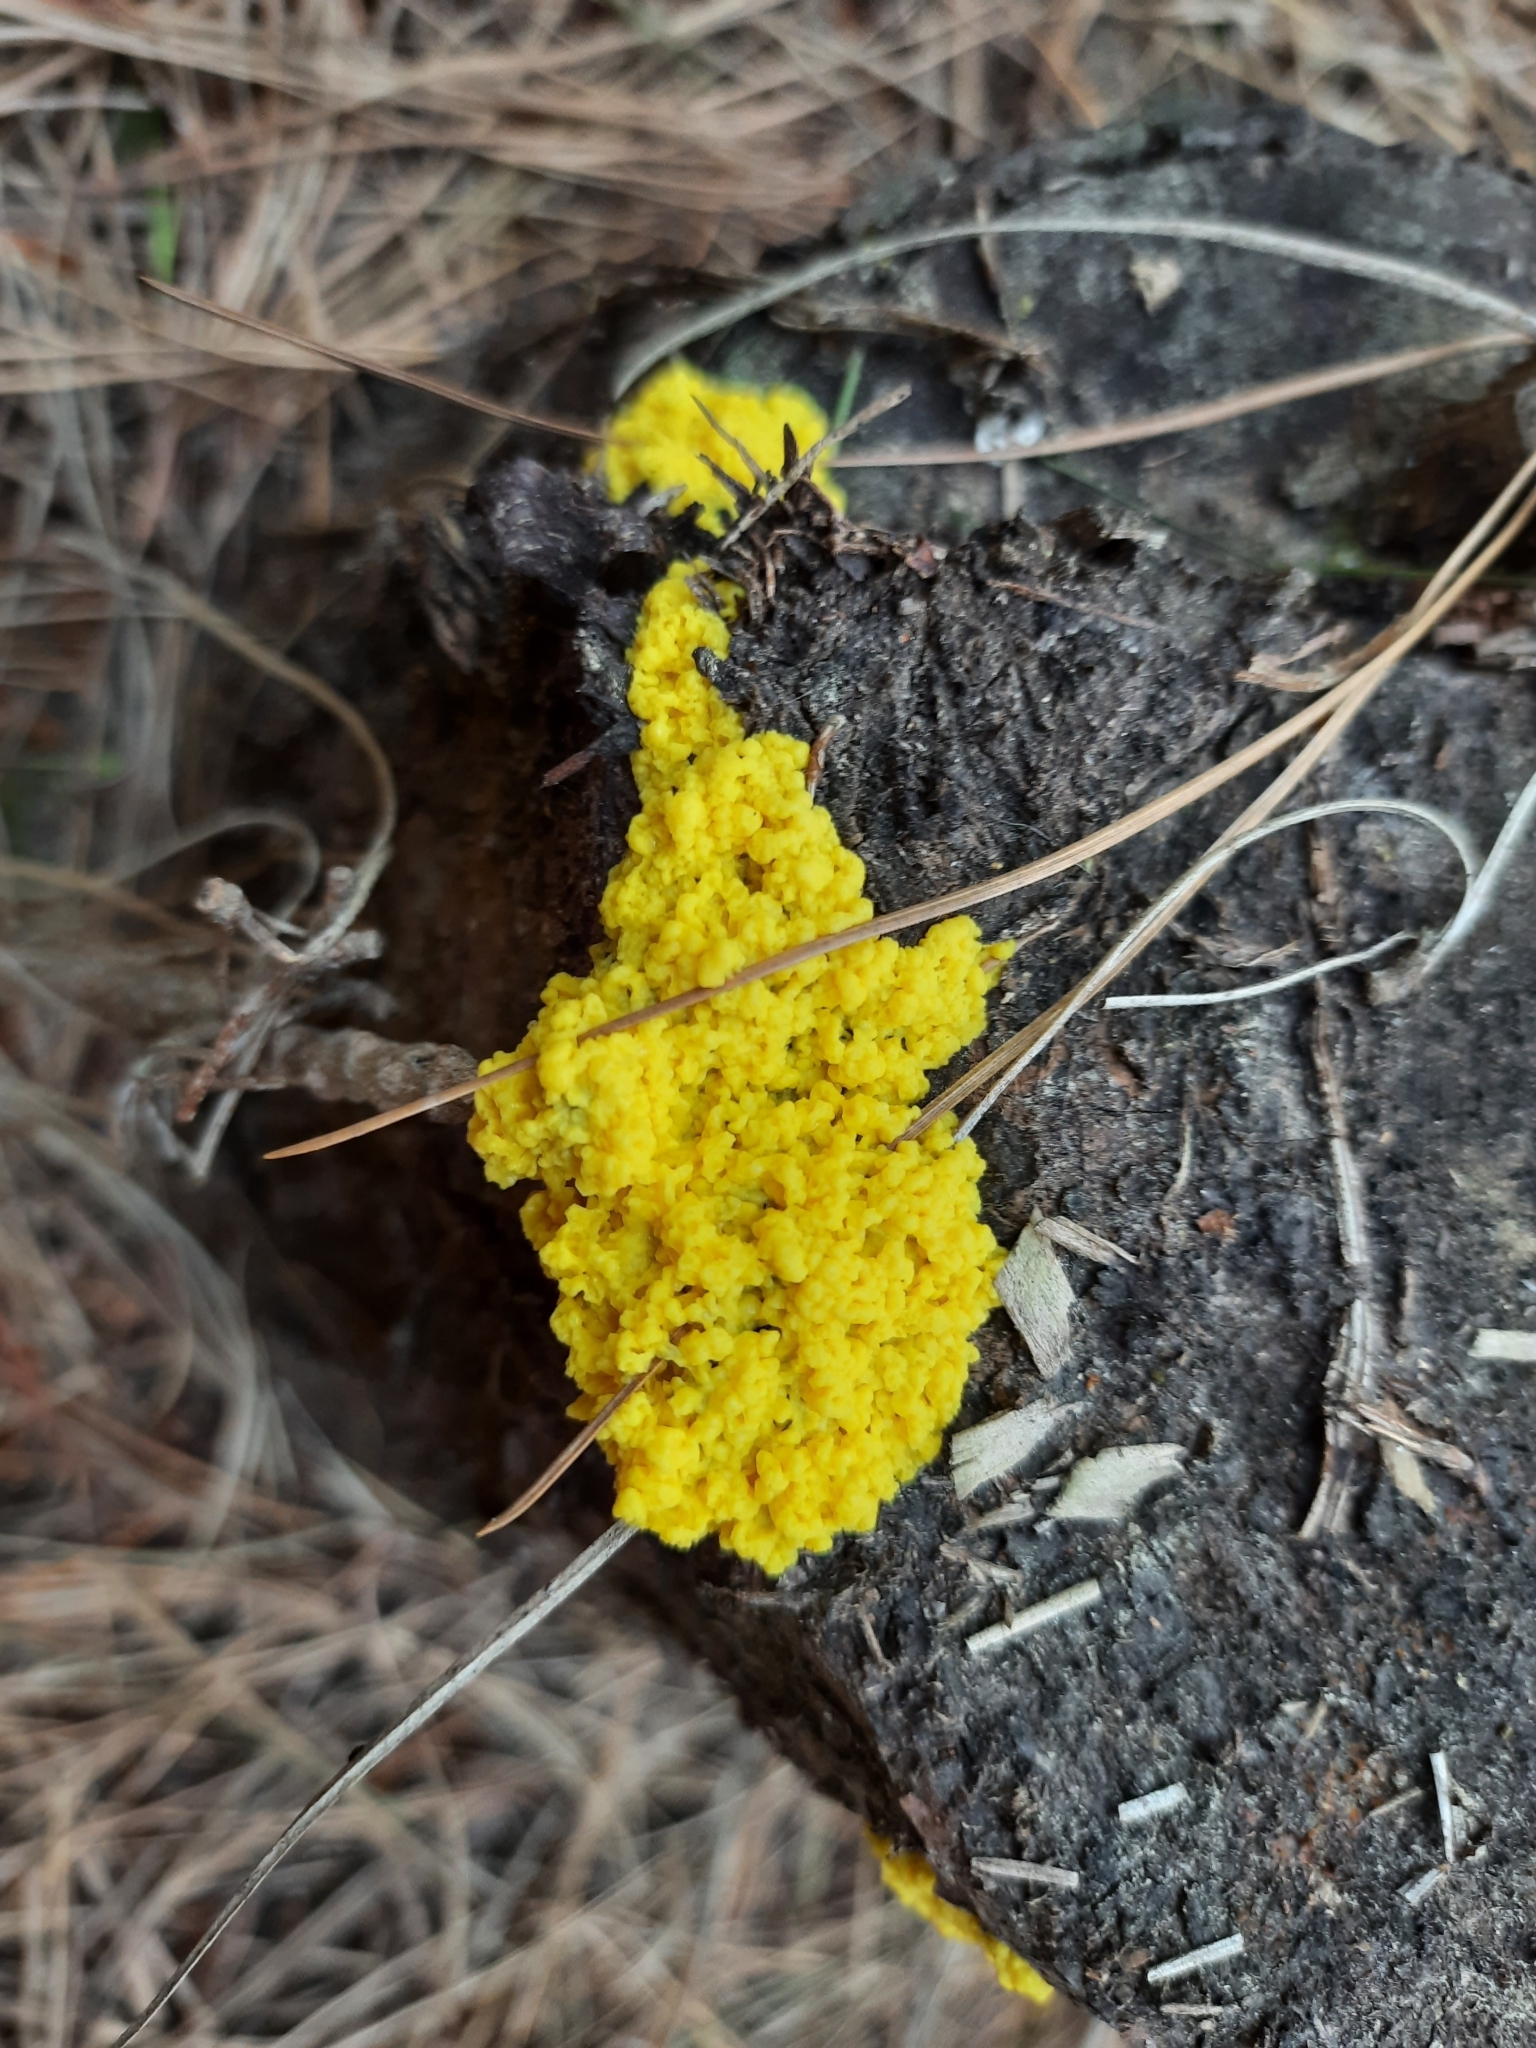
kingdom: Protozoa
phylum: Mycetozoa
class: Myxomycetes
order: Physarales
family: Physaraceae
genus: Fuligo
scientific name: Fuligo septica
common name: Dog vomit slime mold
